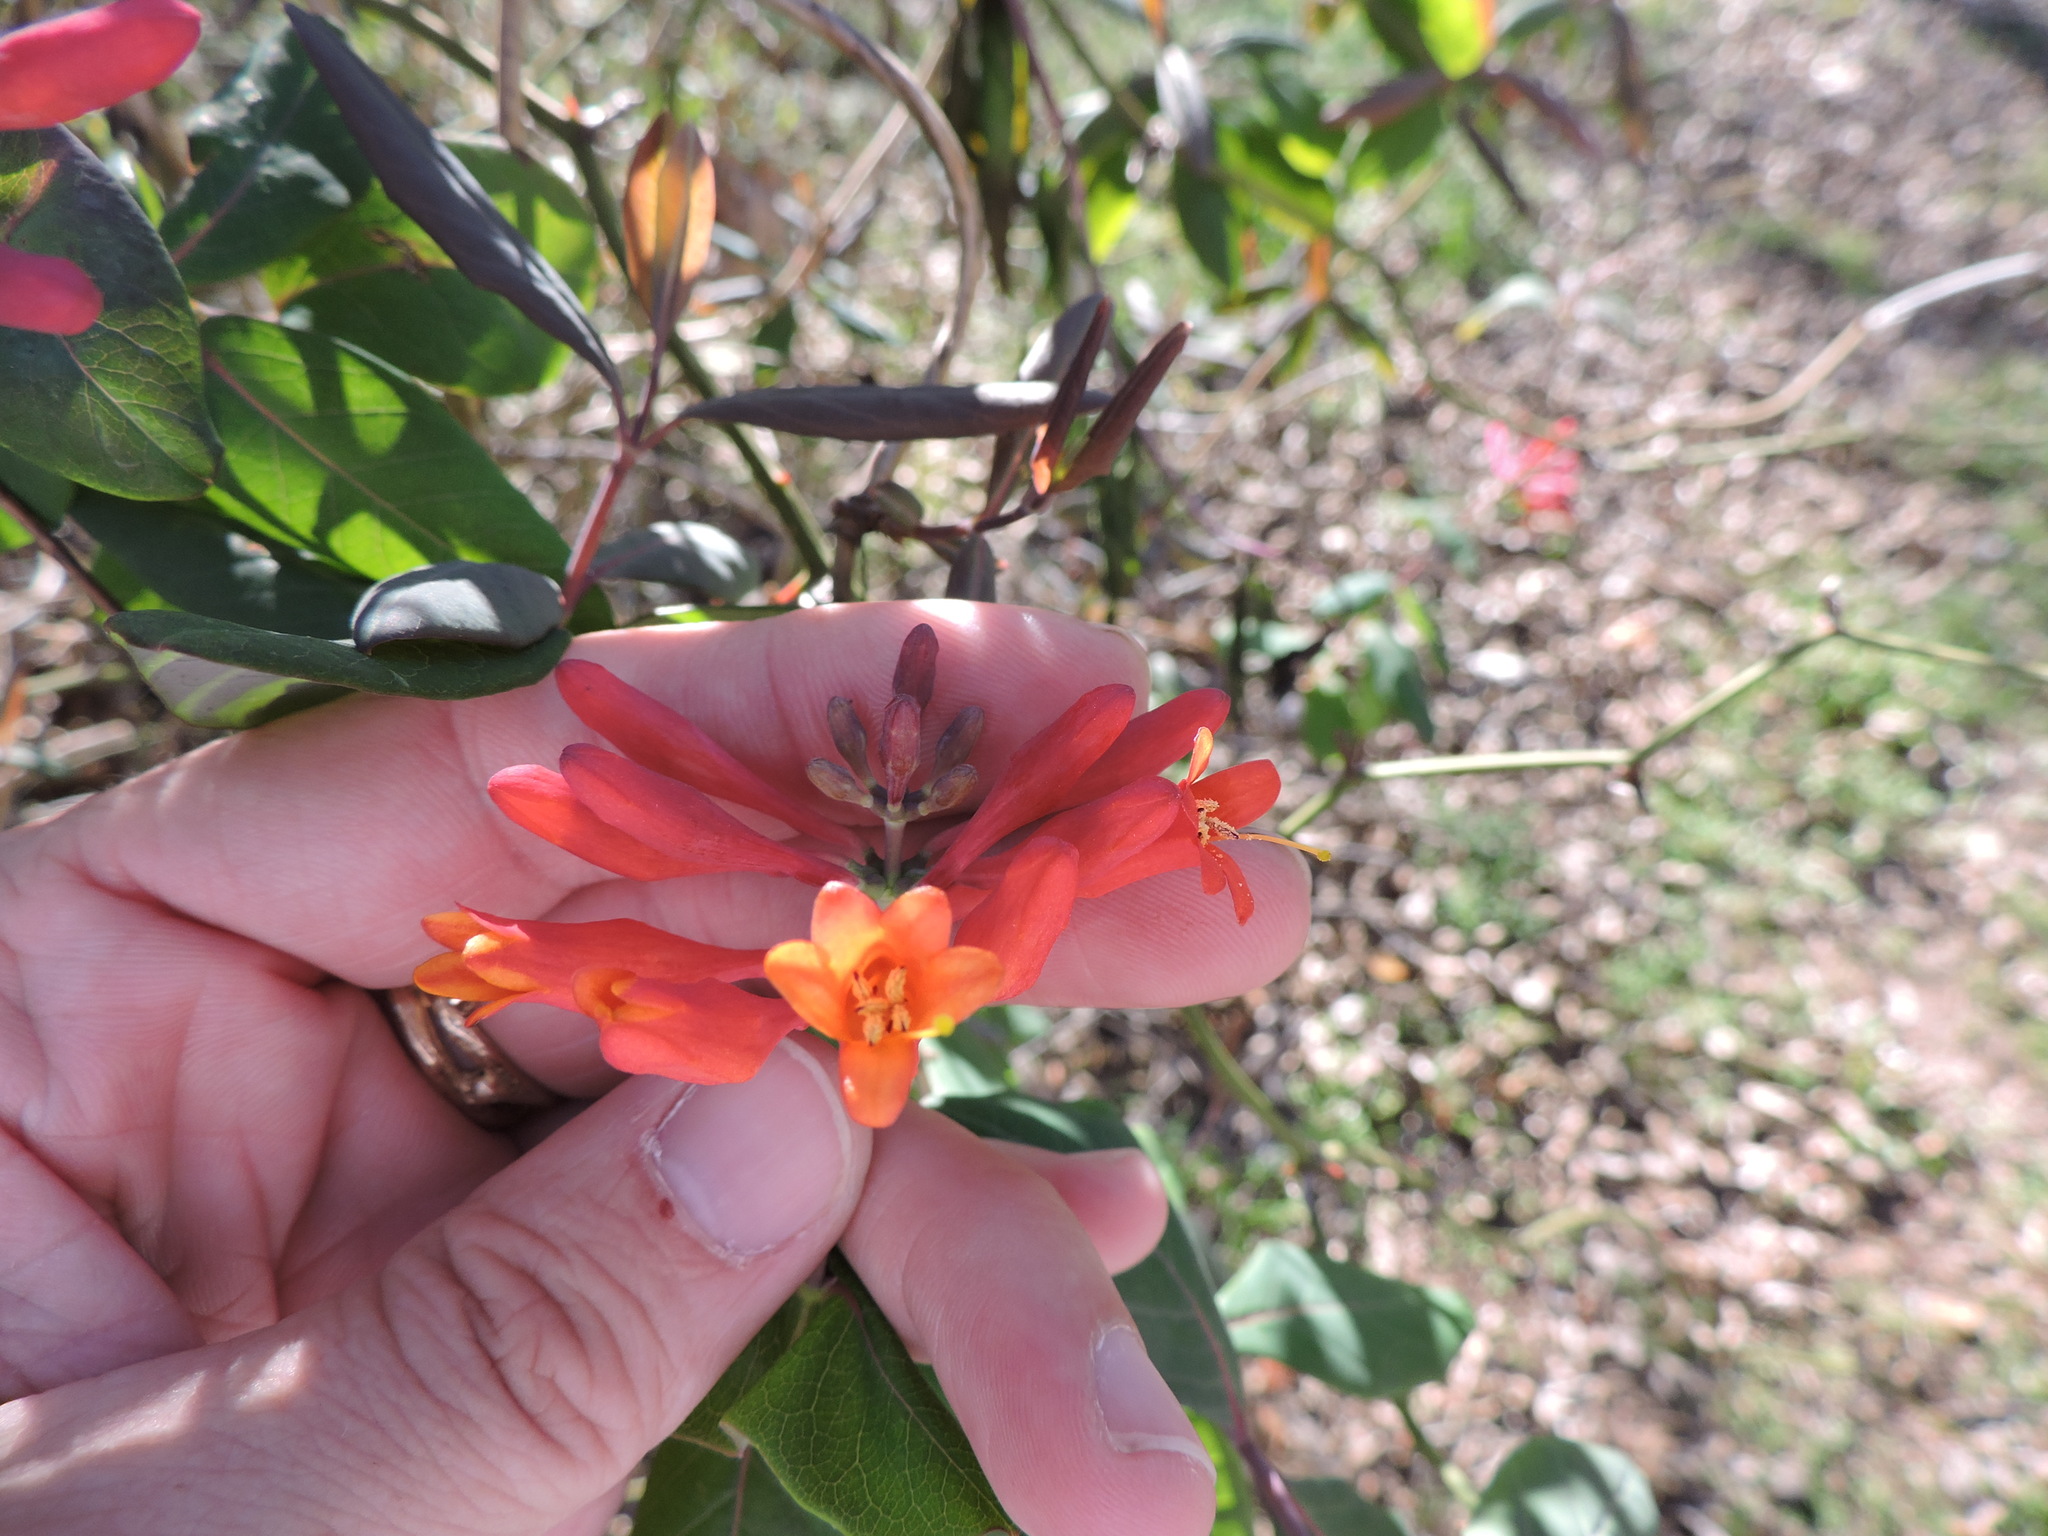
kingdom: Plantae
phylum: Tracheophyta
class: Magnoliopsida
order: Dipsacales
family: Caprifoliaceae
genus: Lonicera
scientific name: Lonicera sempervirens
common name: Coral honeysuckle
